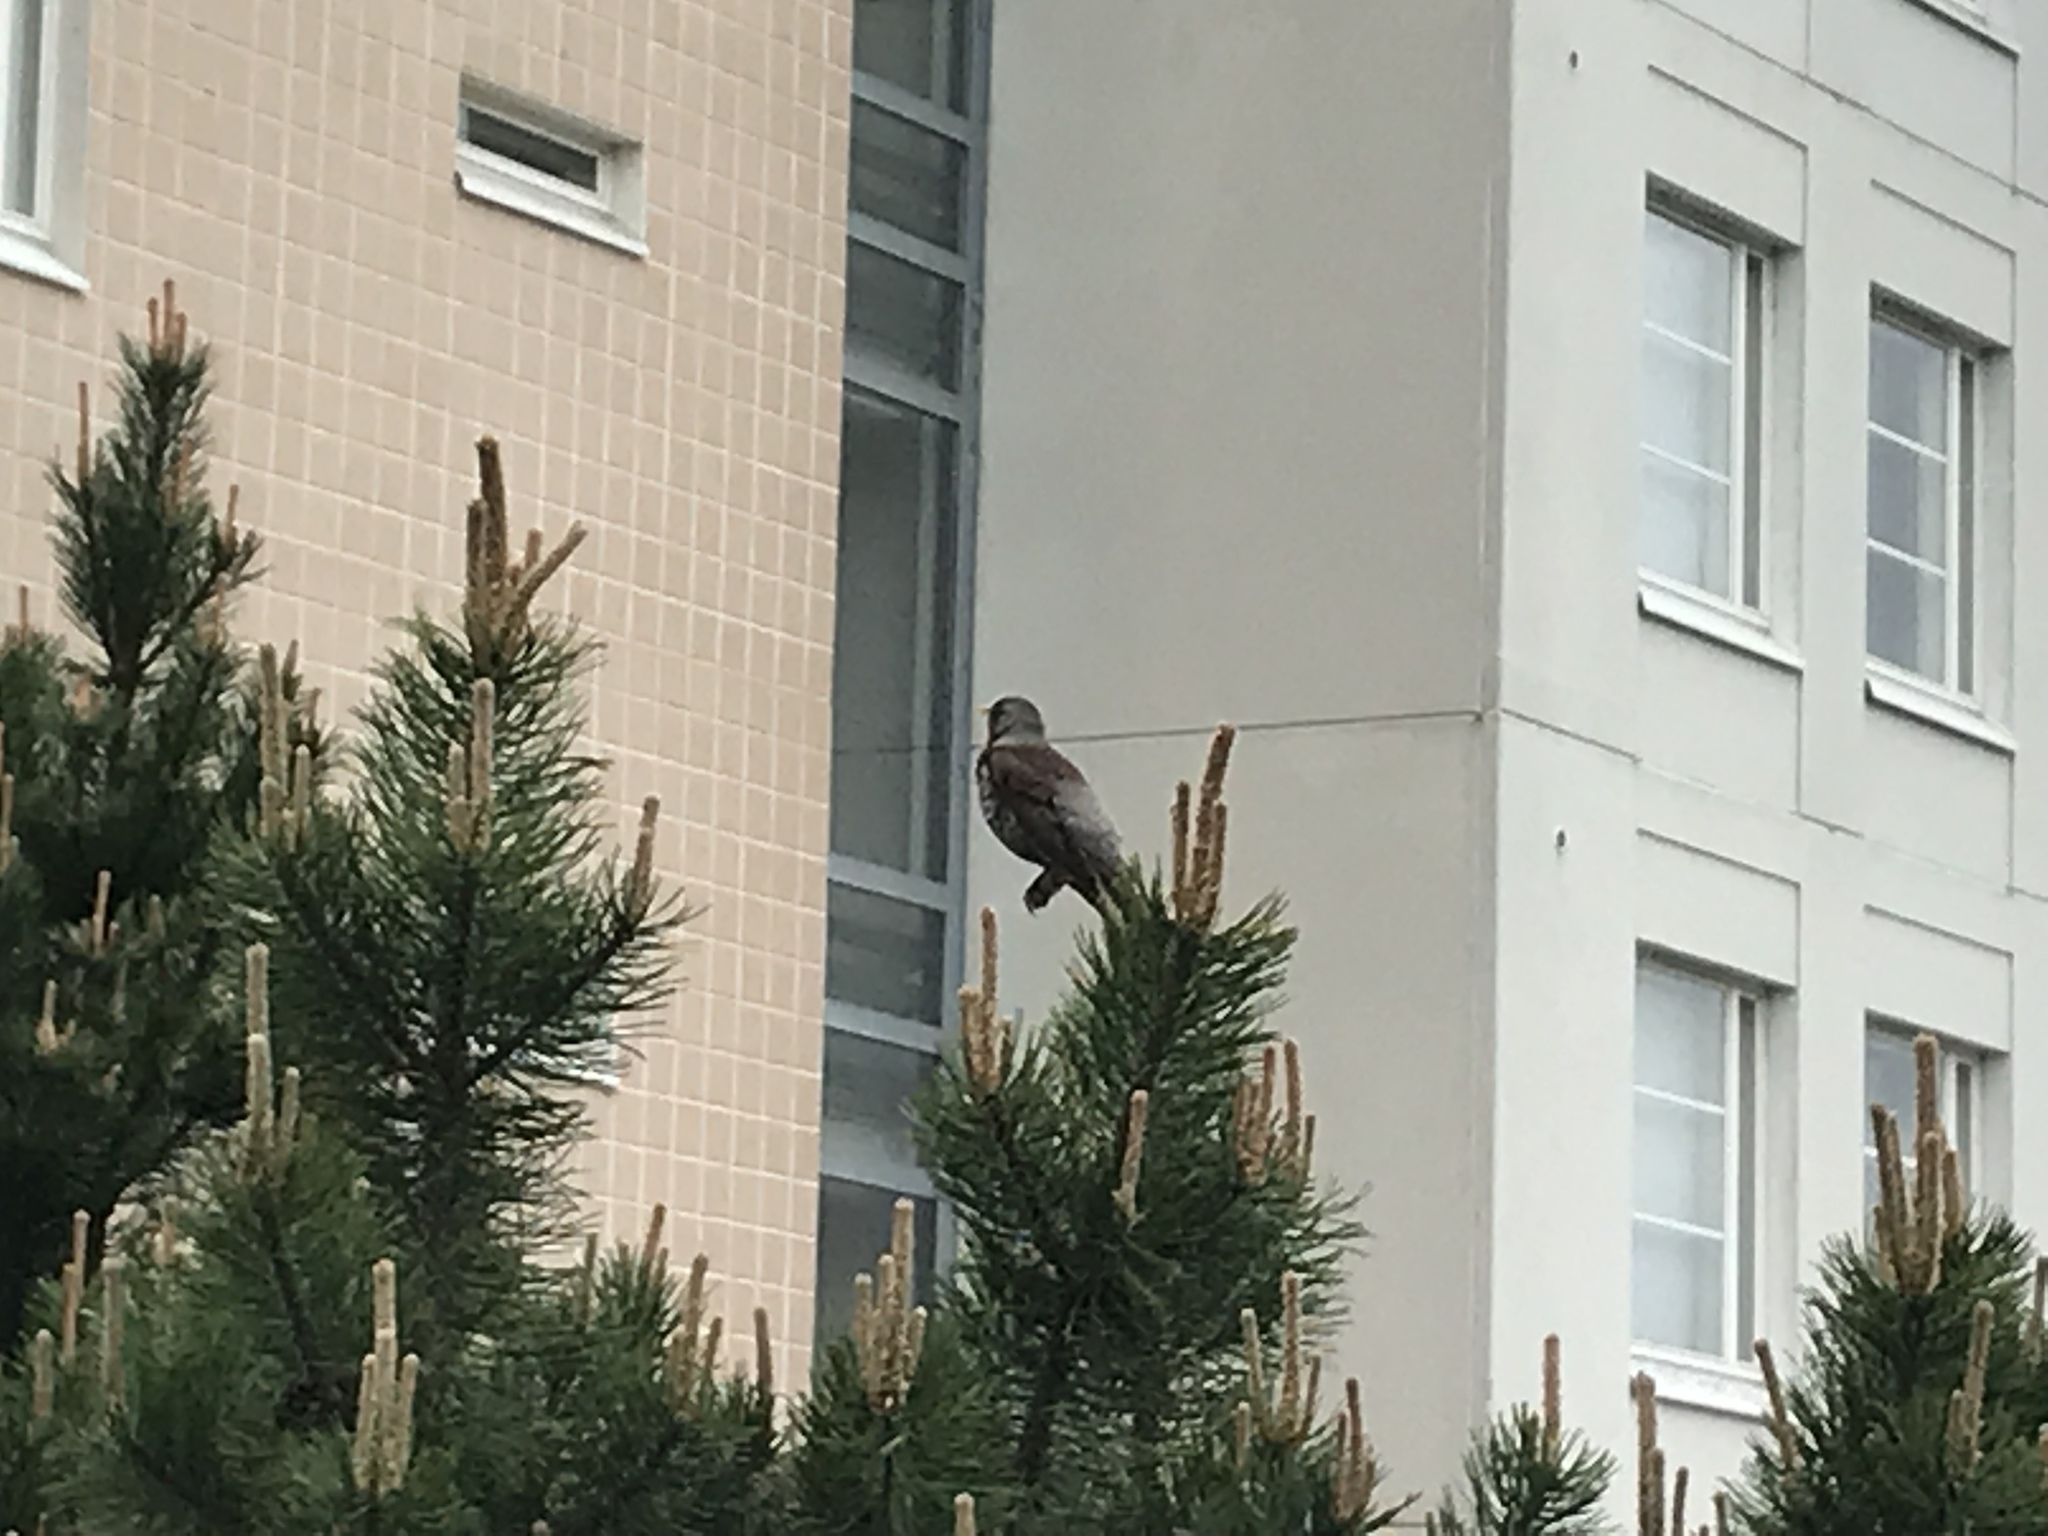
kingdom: Animalia
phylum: Chordata
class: Aves
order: Passeriformes
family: Turdidae
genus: Turdus
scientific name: Turdus pilaris
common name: Fieldfare
